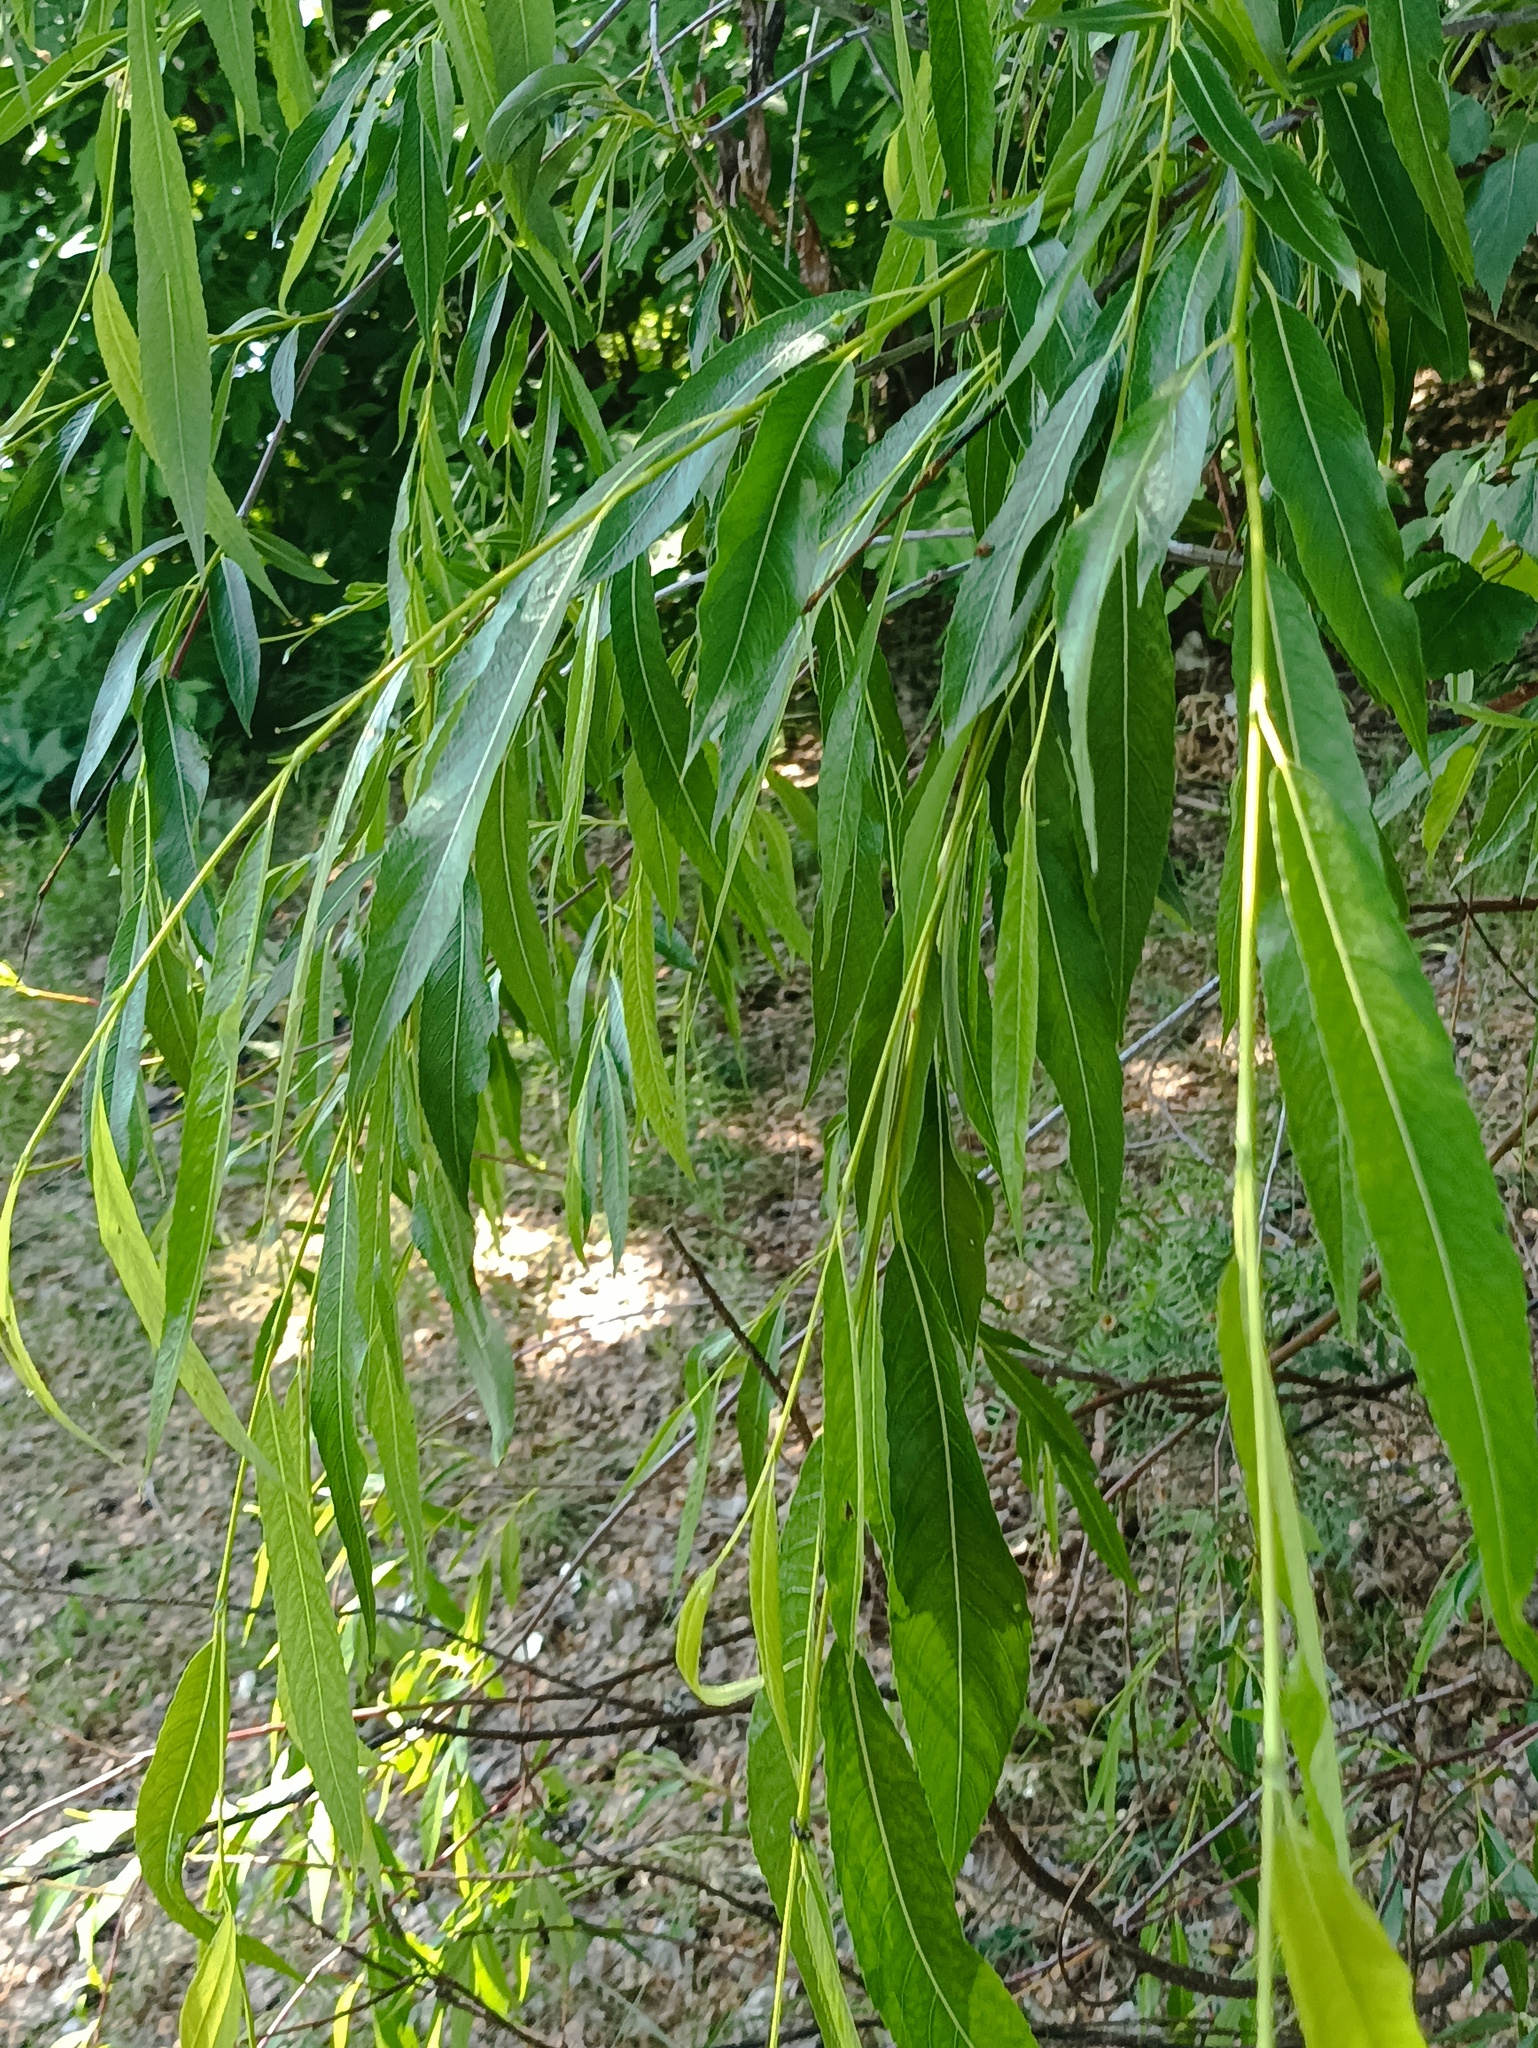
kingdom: Plantae
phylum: Tracheophyta
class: Magnoliopsida
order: Malpighiales
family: Salicaceae
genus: Salix
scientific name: Salix acutifolia
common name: Siberian violet-willow
